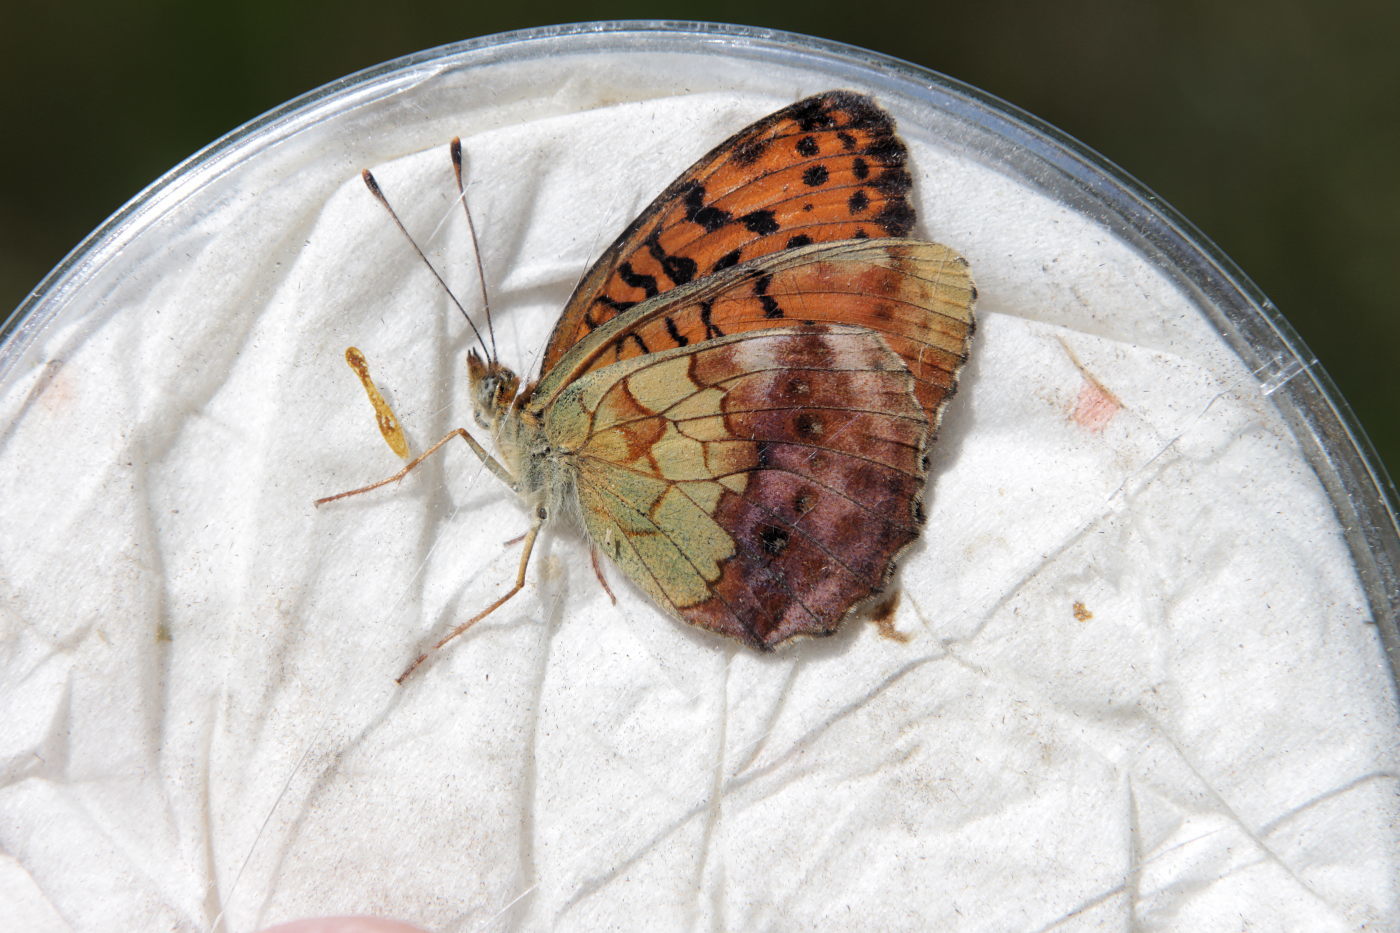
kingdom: Animalia
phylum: Arthropoda
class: Insecta
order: Lepidoptera
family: Nymphalidae
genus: Brenthis
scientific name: Brenthis daphne
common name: Marbled fritillary
